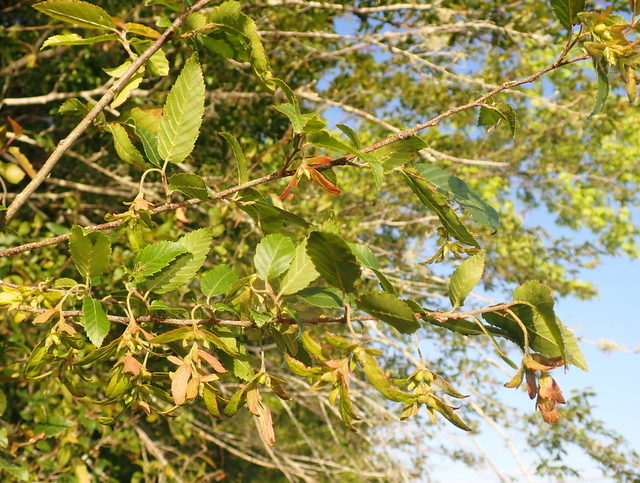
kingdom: Plantae
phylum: Tracheophyta
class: Magnoliopsida
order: Fagales
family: Betulaceae
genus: Carpinus
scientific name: Carpinus caroliniana
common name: American hornbeam
